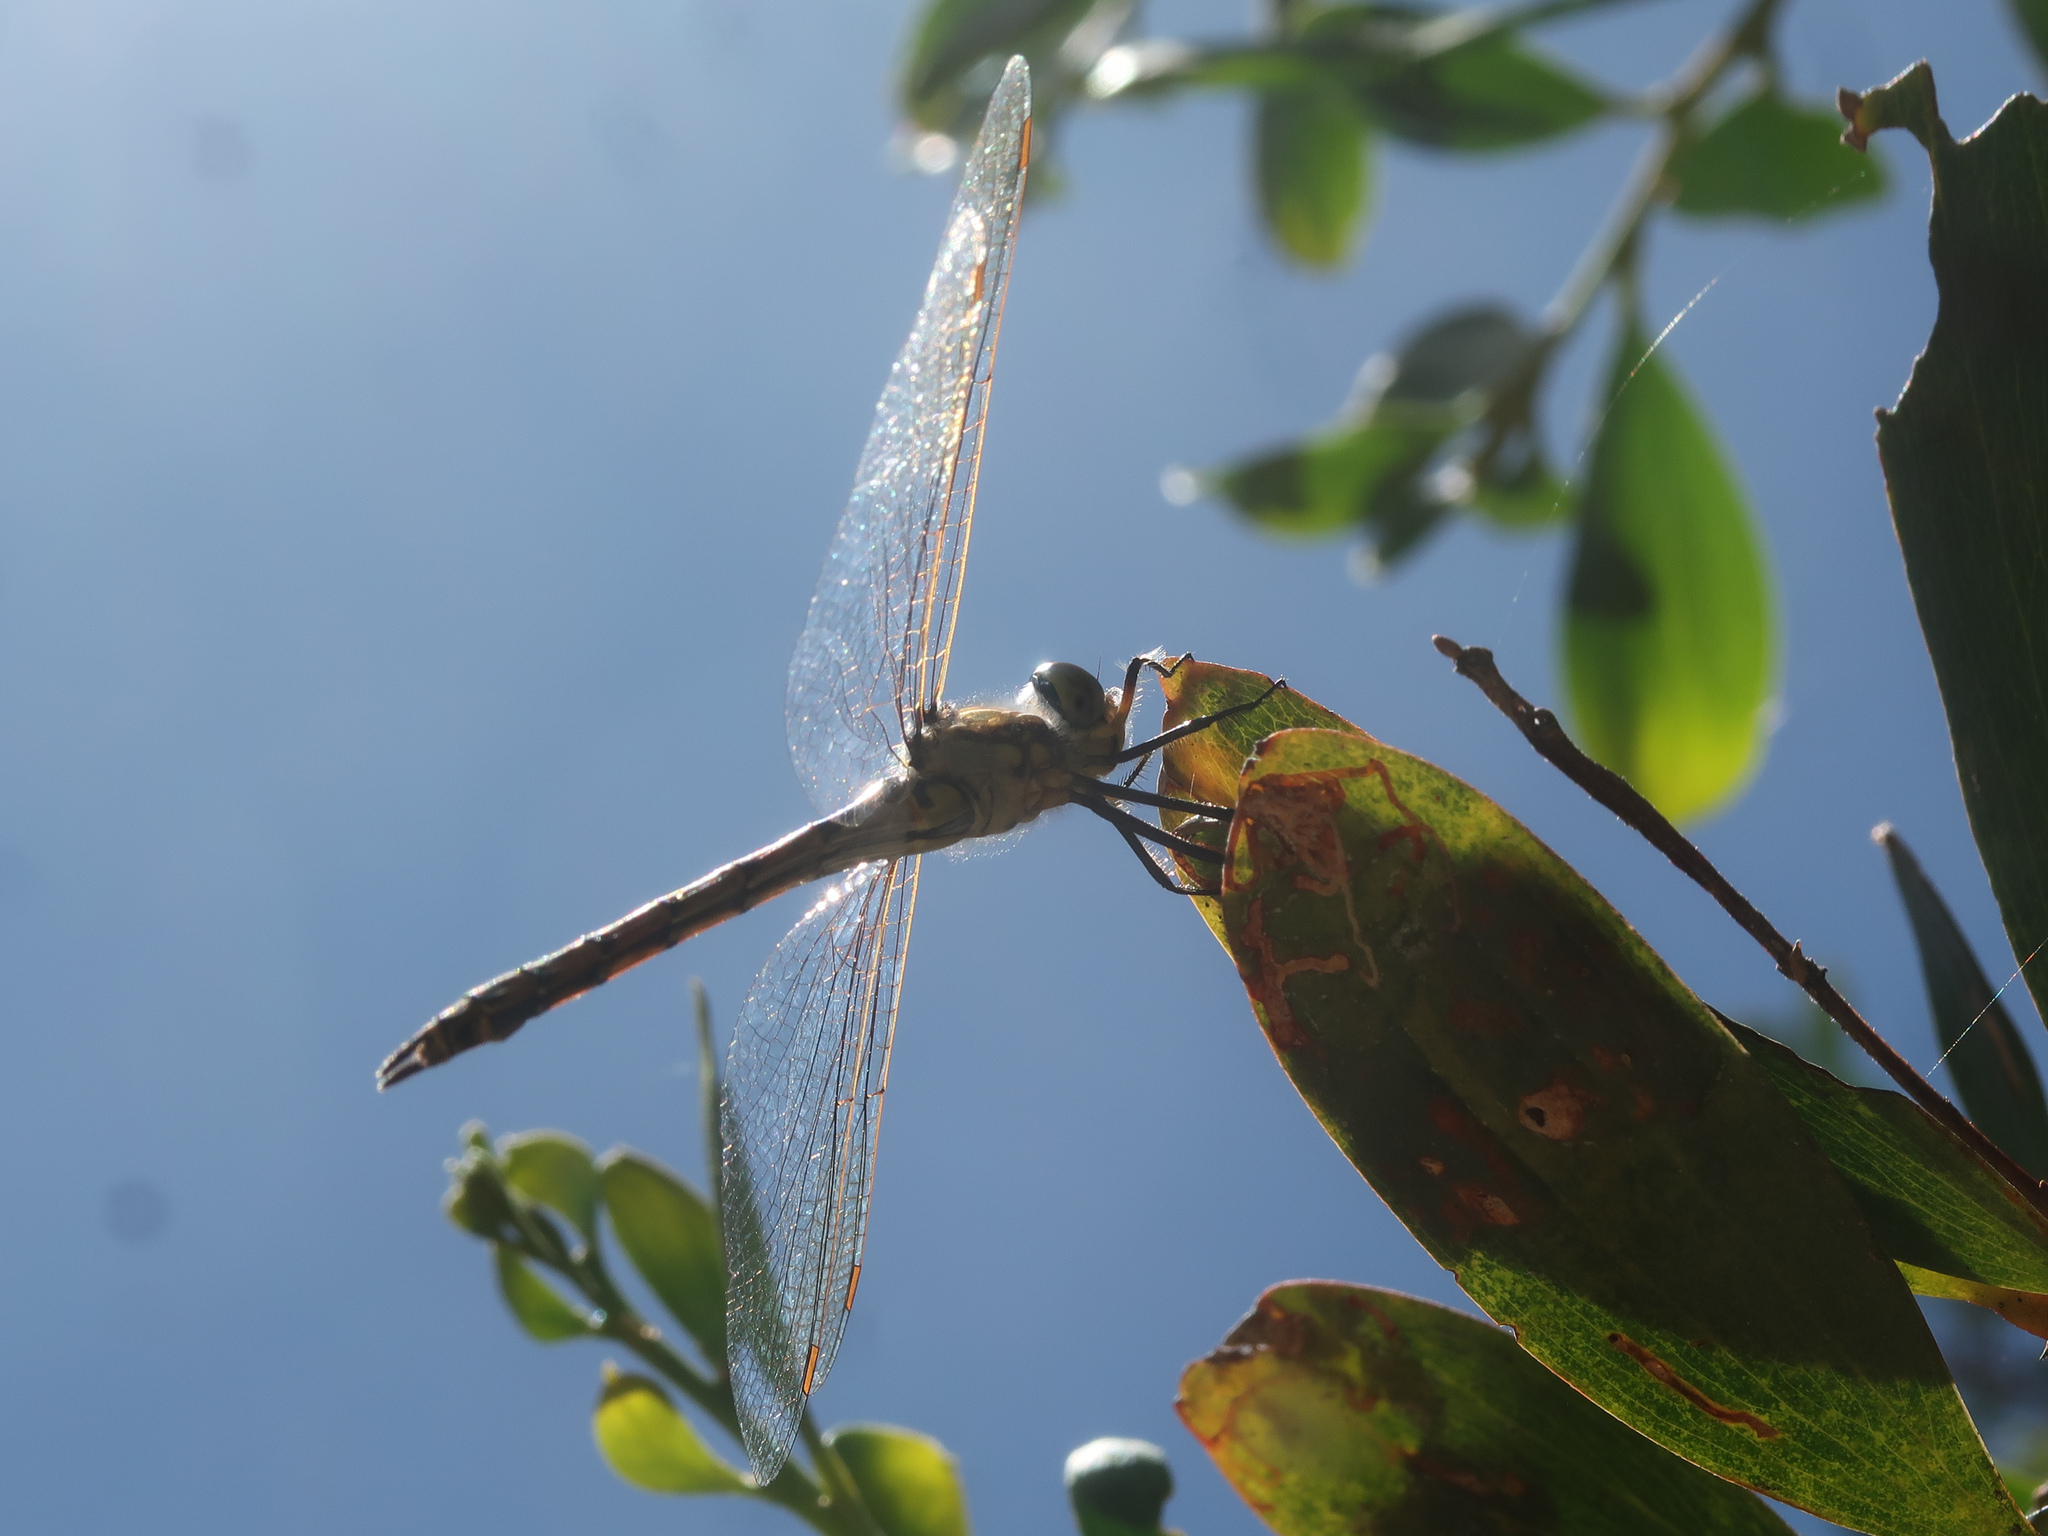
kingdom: Animalia
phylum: Arthropoda
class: Insecta
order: Odonata
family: Corduliidae
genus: Hemicordulia
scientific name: Hemicordulia tau
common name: Tau emerald
